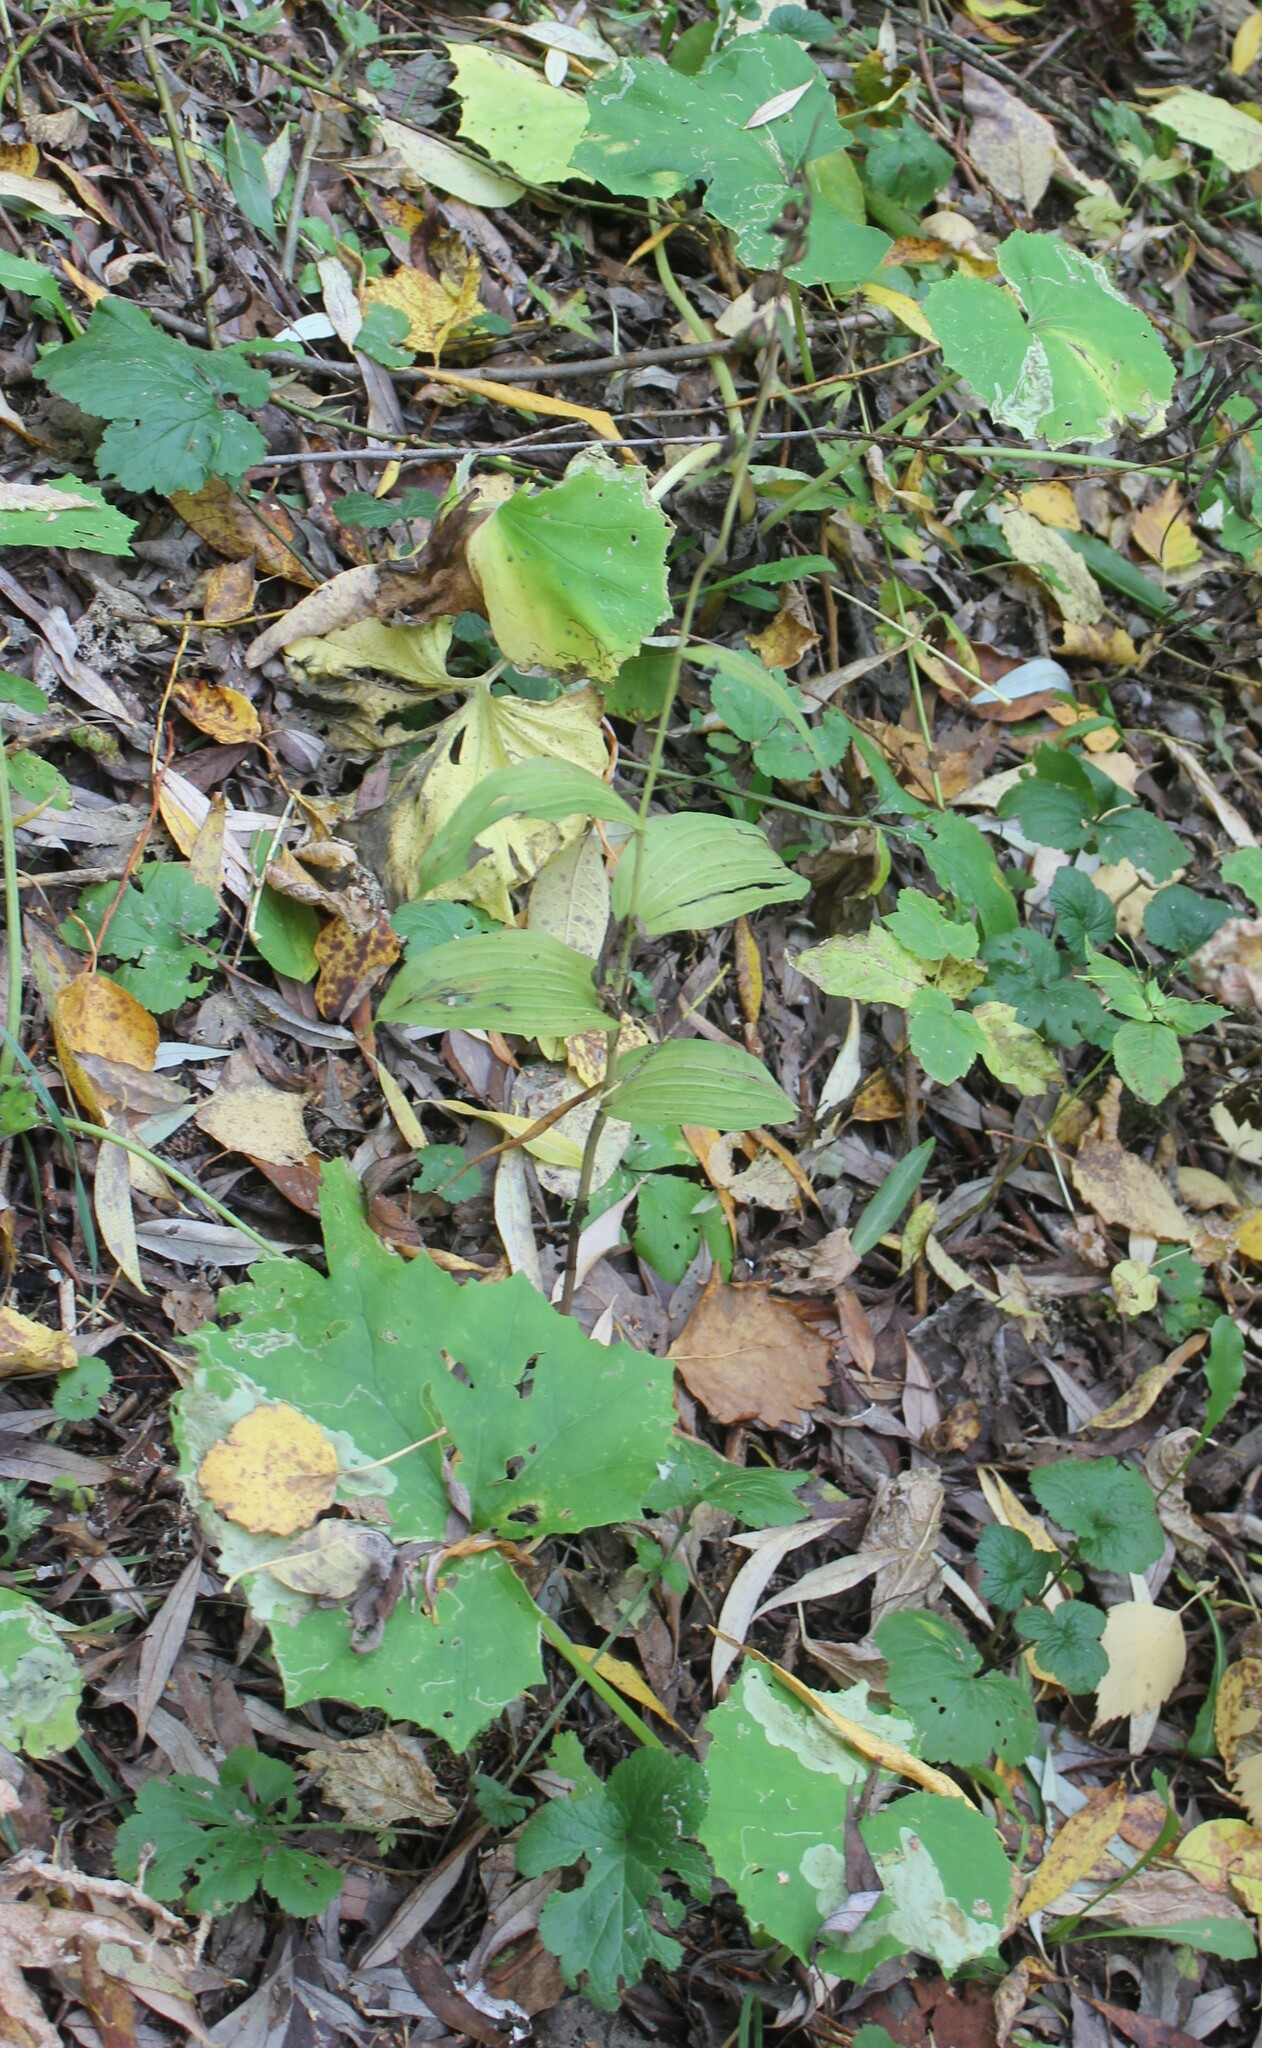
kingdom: Plantae
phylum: Tracheophyta
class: Liliopsida
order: Asparagales
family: Orchidaceae
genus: Epipactis
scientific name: Epipactis helleborine
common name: Broad-leaved helleborine
